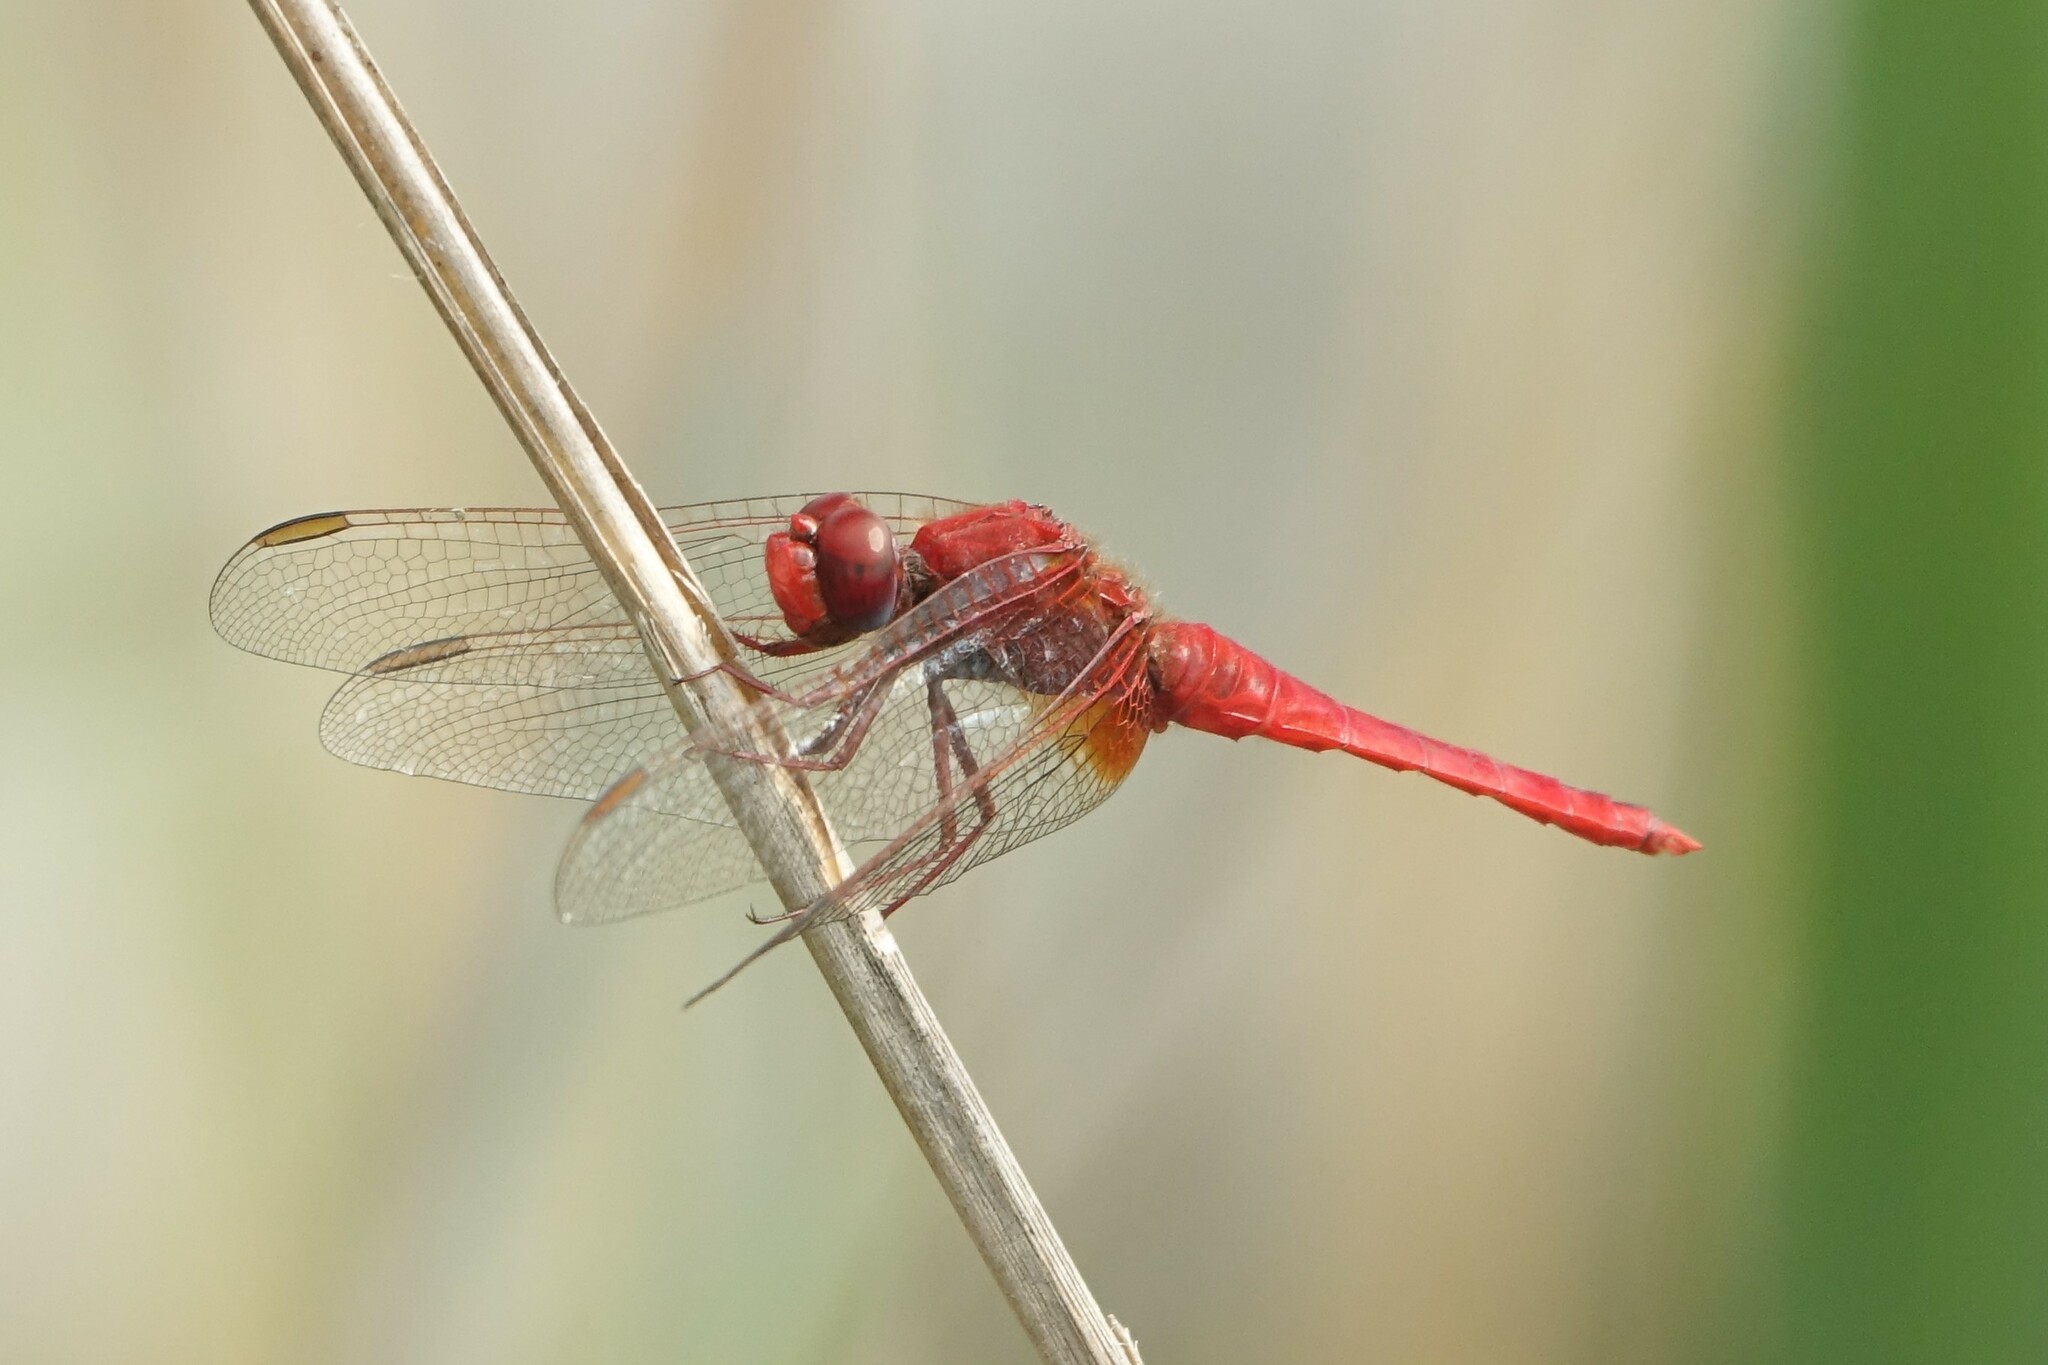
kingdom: Animalia
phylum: Arthropoda
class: Insecta
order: Odonata
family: Libellulidae
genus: Crocothemis
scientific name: Crocothemis erythraea
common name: Scarlet dragonfly
